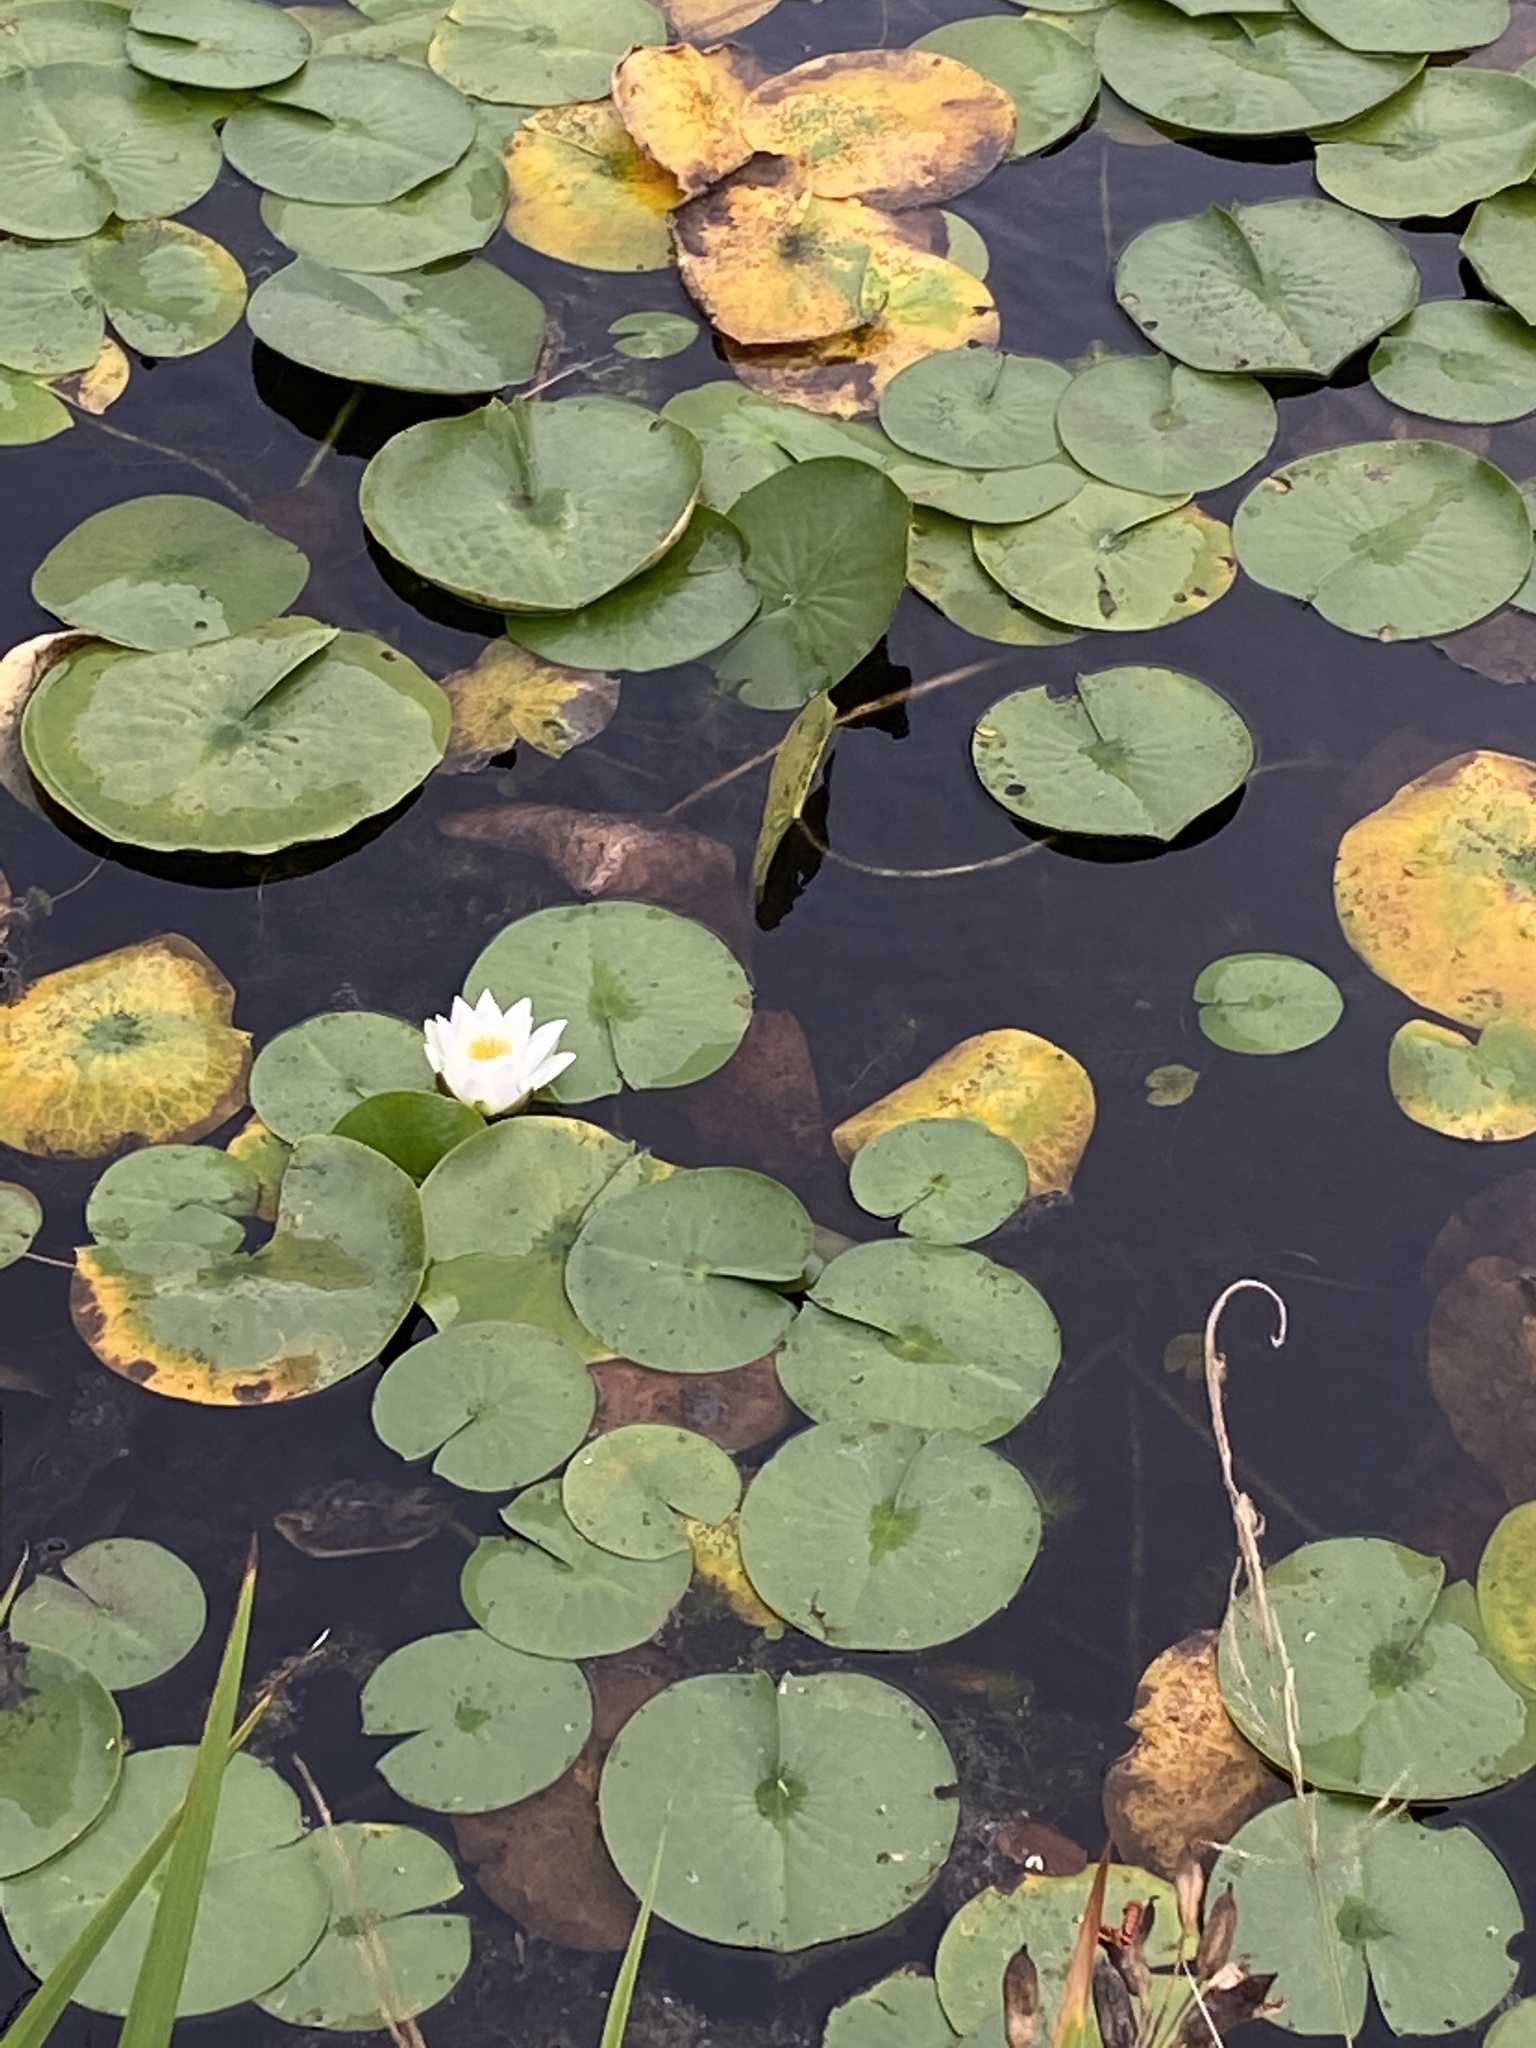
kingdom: Plantae
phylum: Tracheophyta
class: Magnoliopsida
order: Nymphaeales
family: Nymphaeaceae
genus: Nymphaea
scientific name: Nymphaea odorata
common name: Fragrant water-lily
